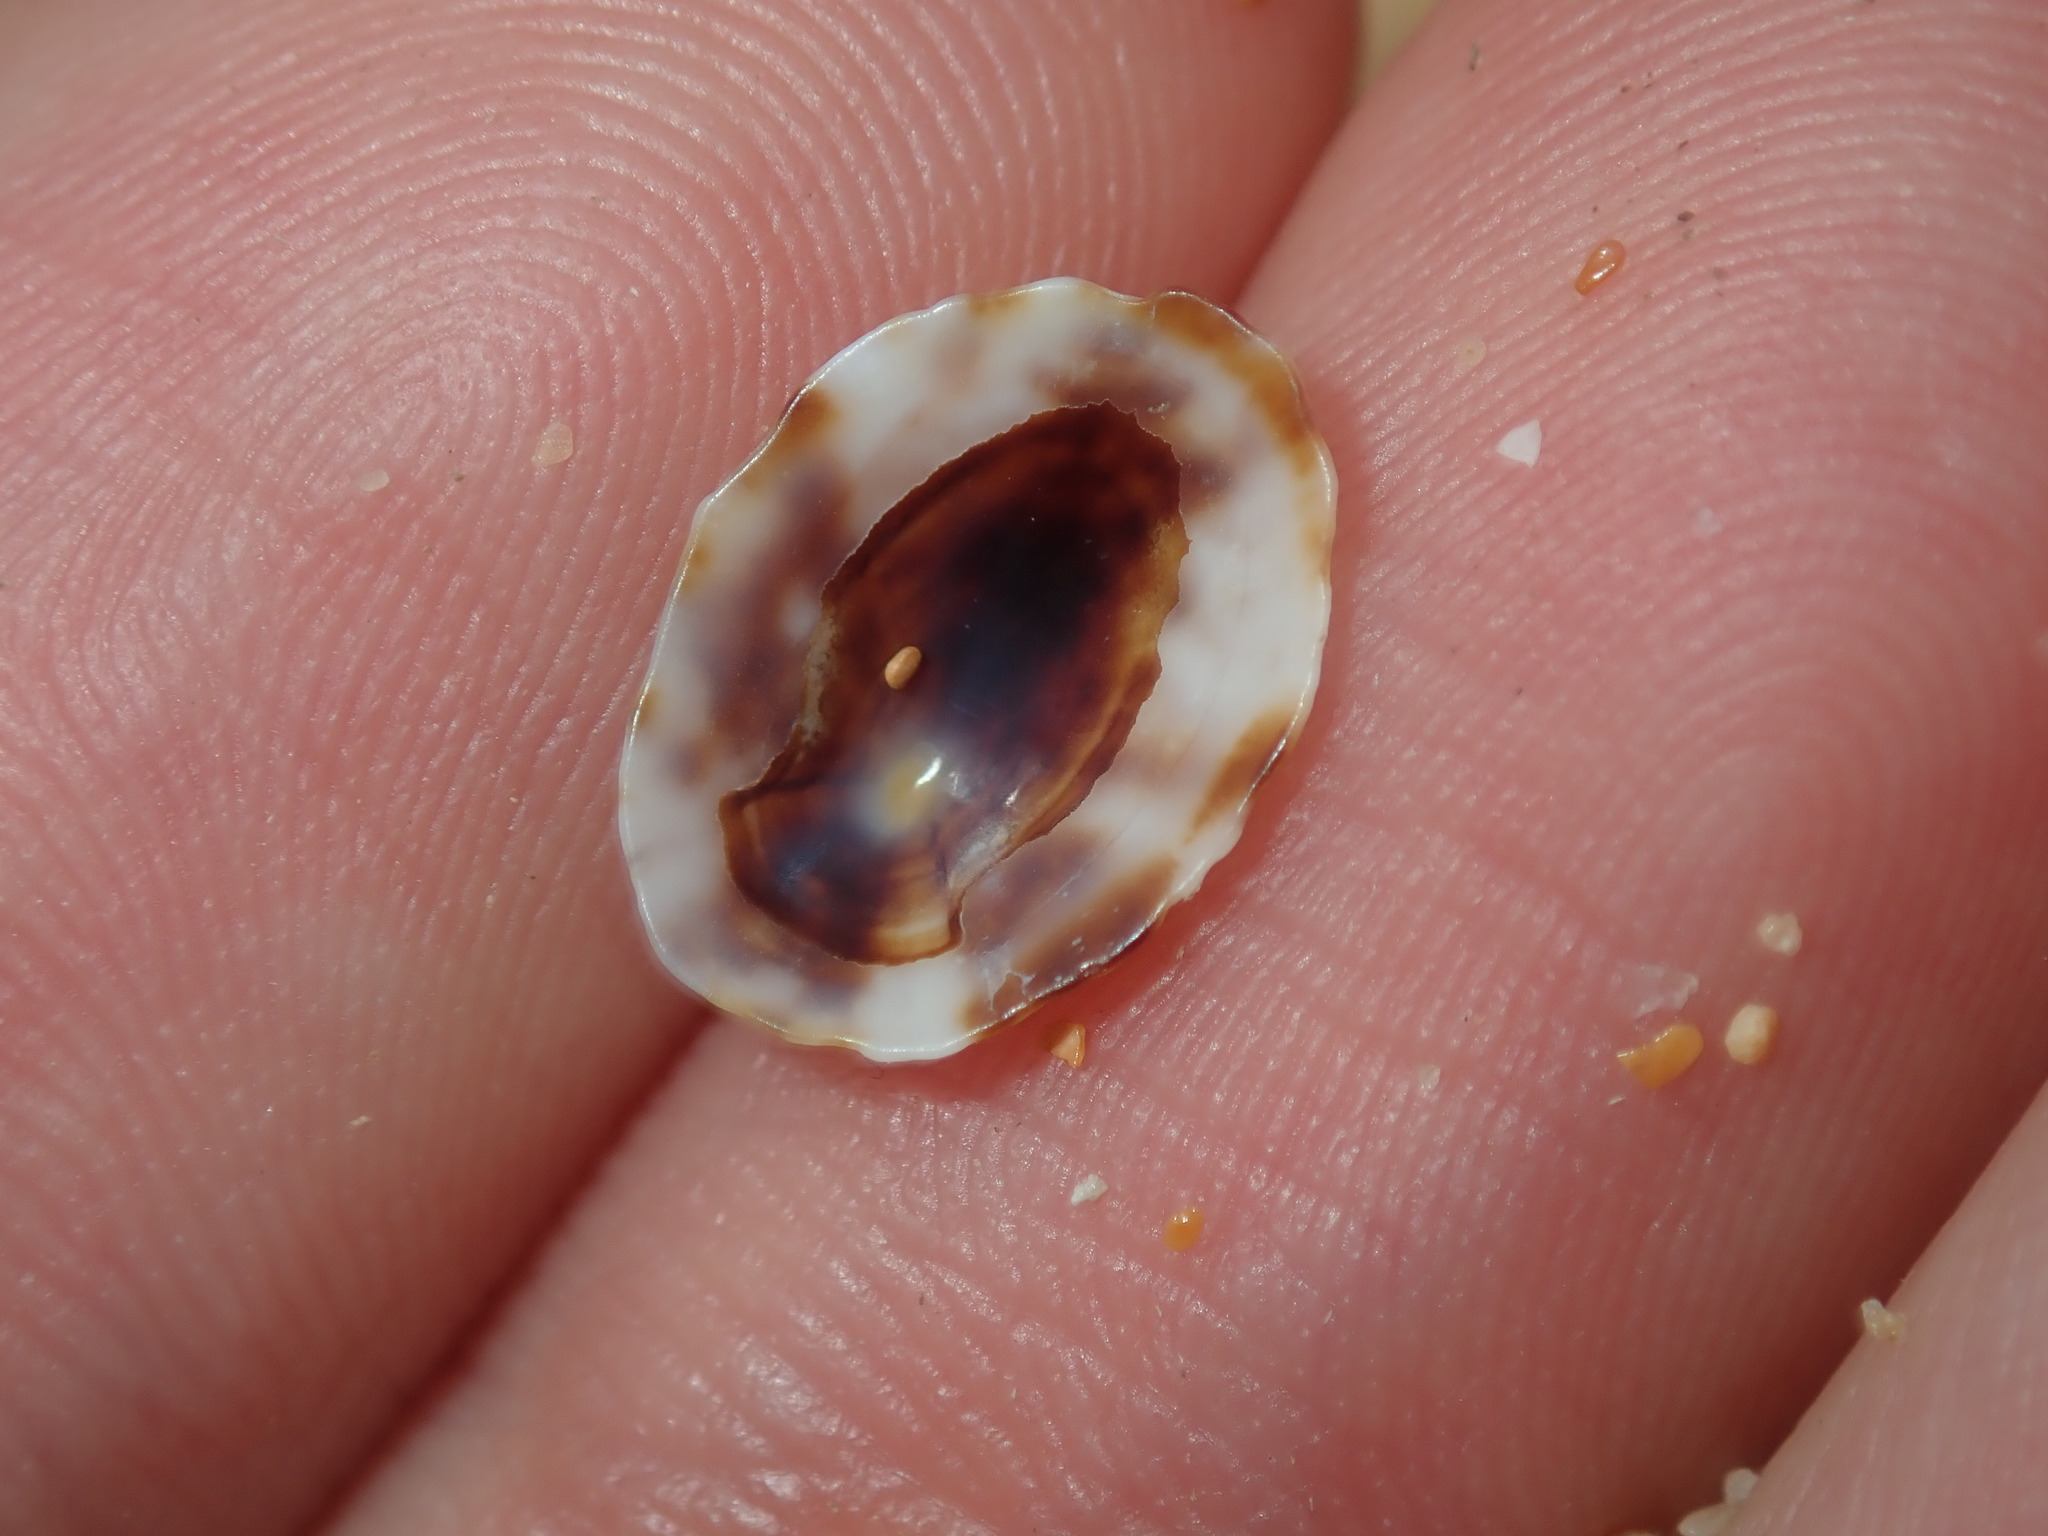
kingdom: Animalia
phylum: Mollusca
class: Gastropoda
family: Lottiidae
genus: Patelloida
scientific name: Patelloida mufria
